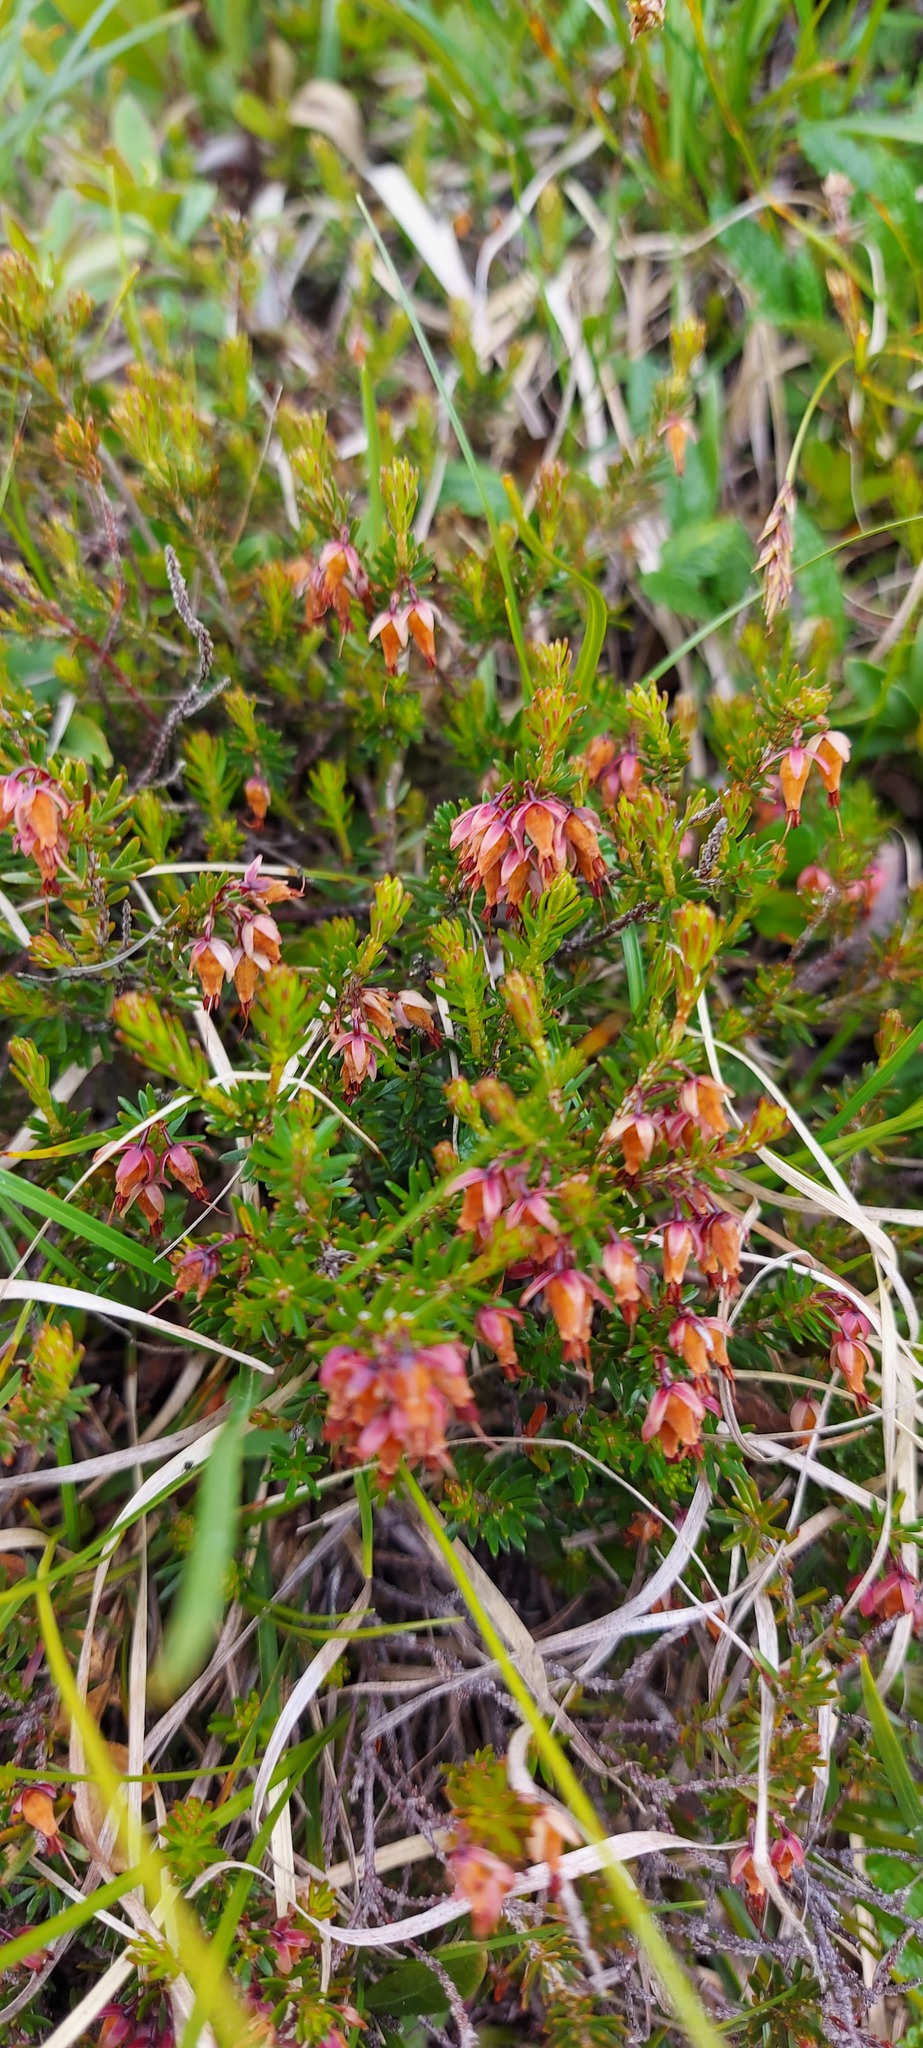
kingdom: Plantae
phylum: Tracheophyta
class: Magnoliopsida
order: Ericales
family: Ericaceae
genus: Erica
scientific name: Erica carnea
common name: Winter heath
